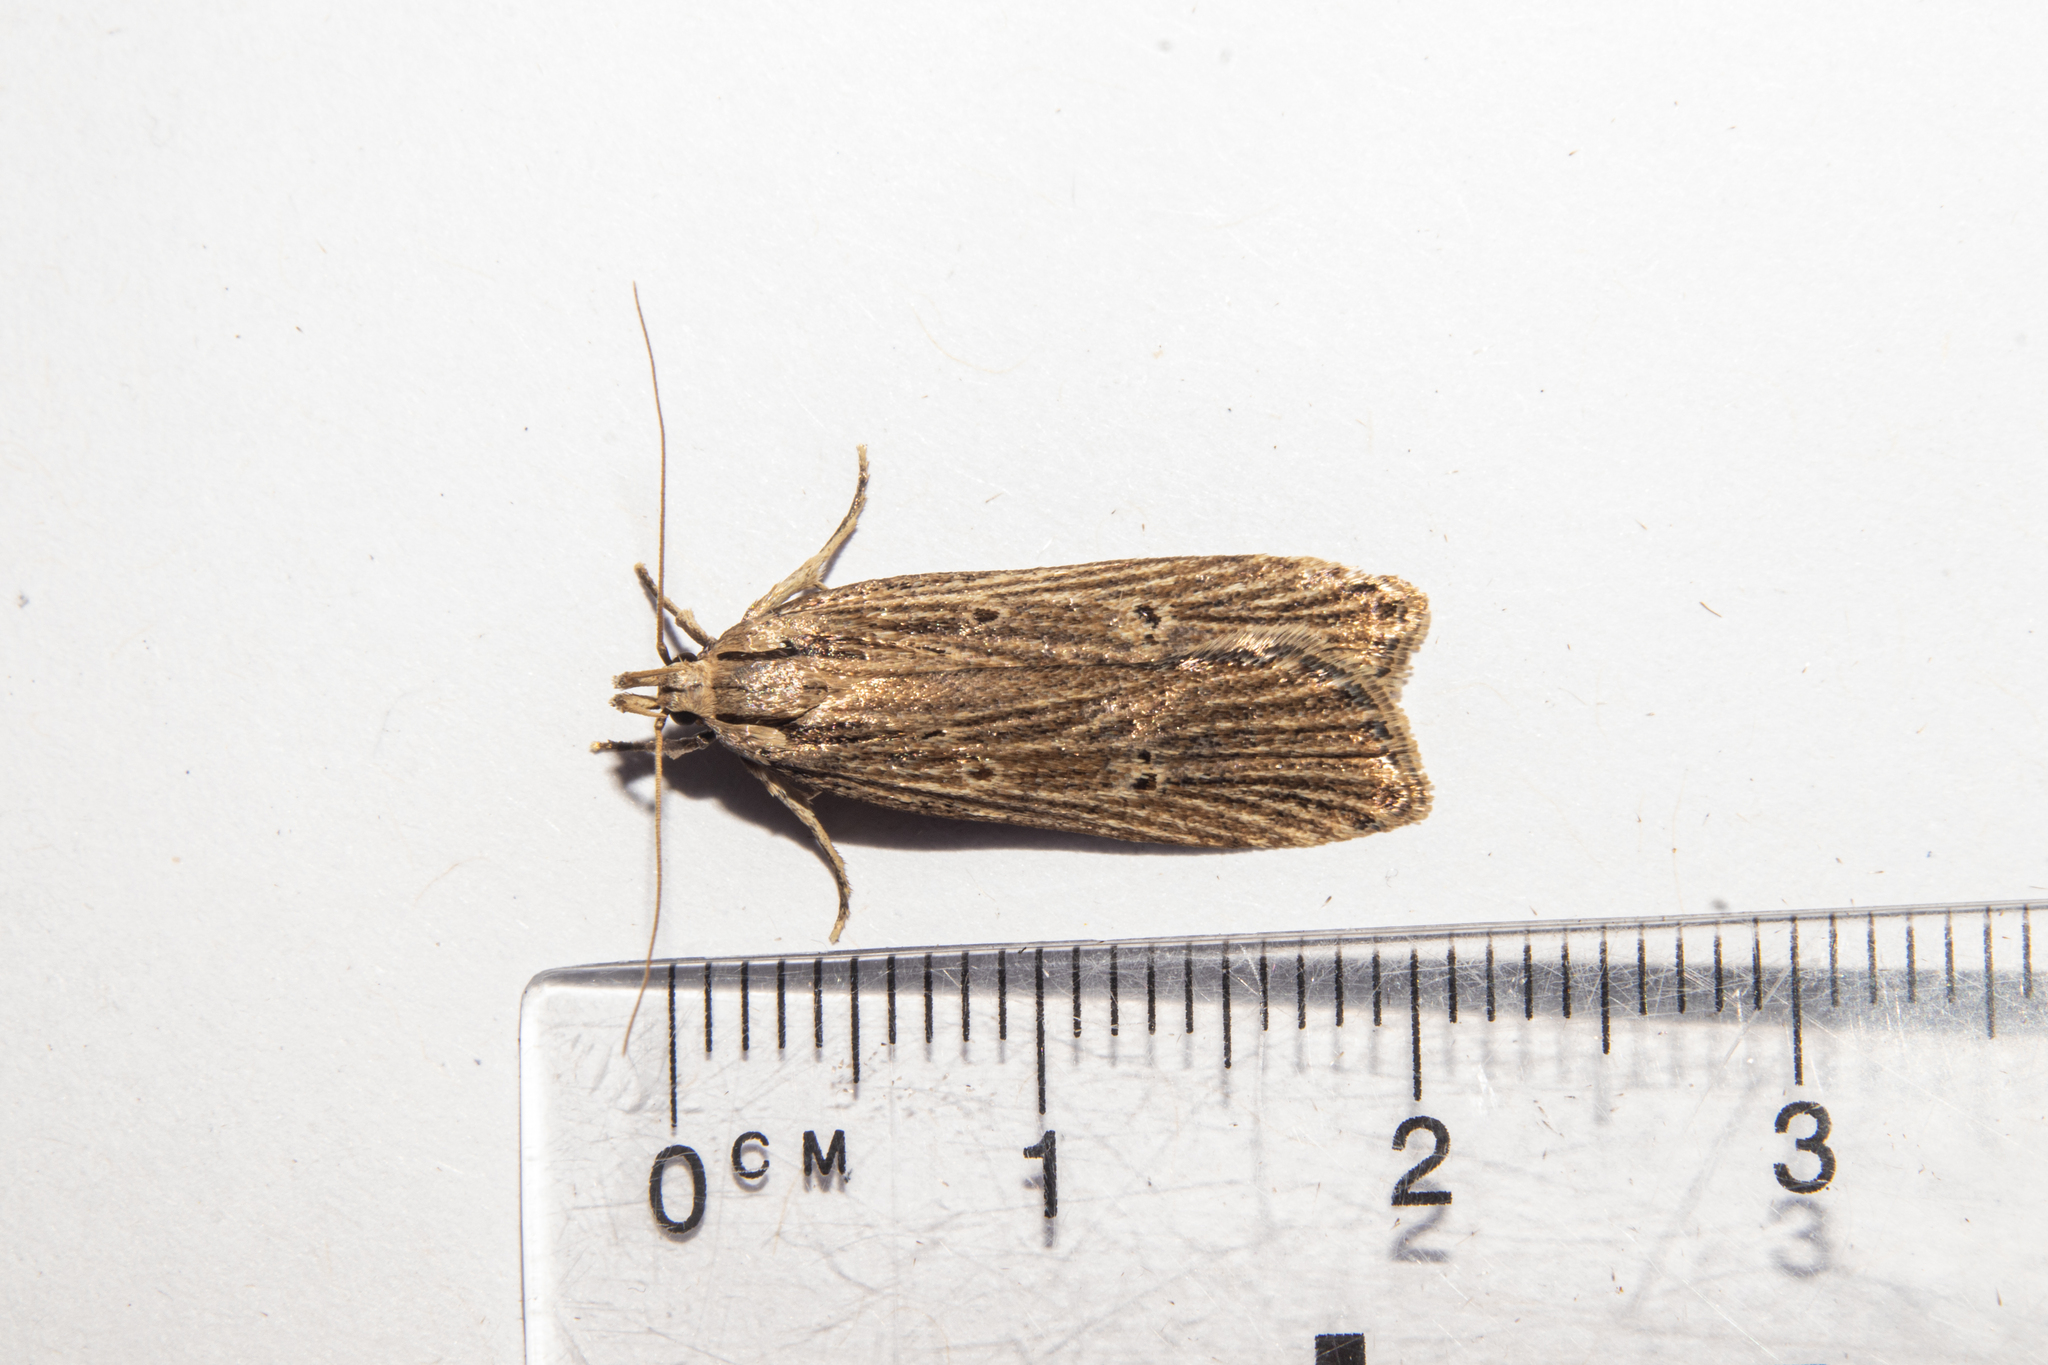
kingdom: Animalia
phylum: Arthropoda
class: Insecta
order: Lepidoptera
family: Gelechiidae
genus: Anisoplaca
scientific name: Anisoplaca ptyoptera
